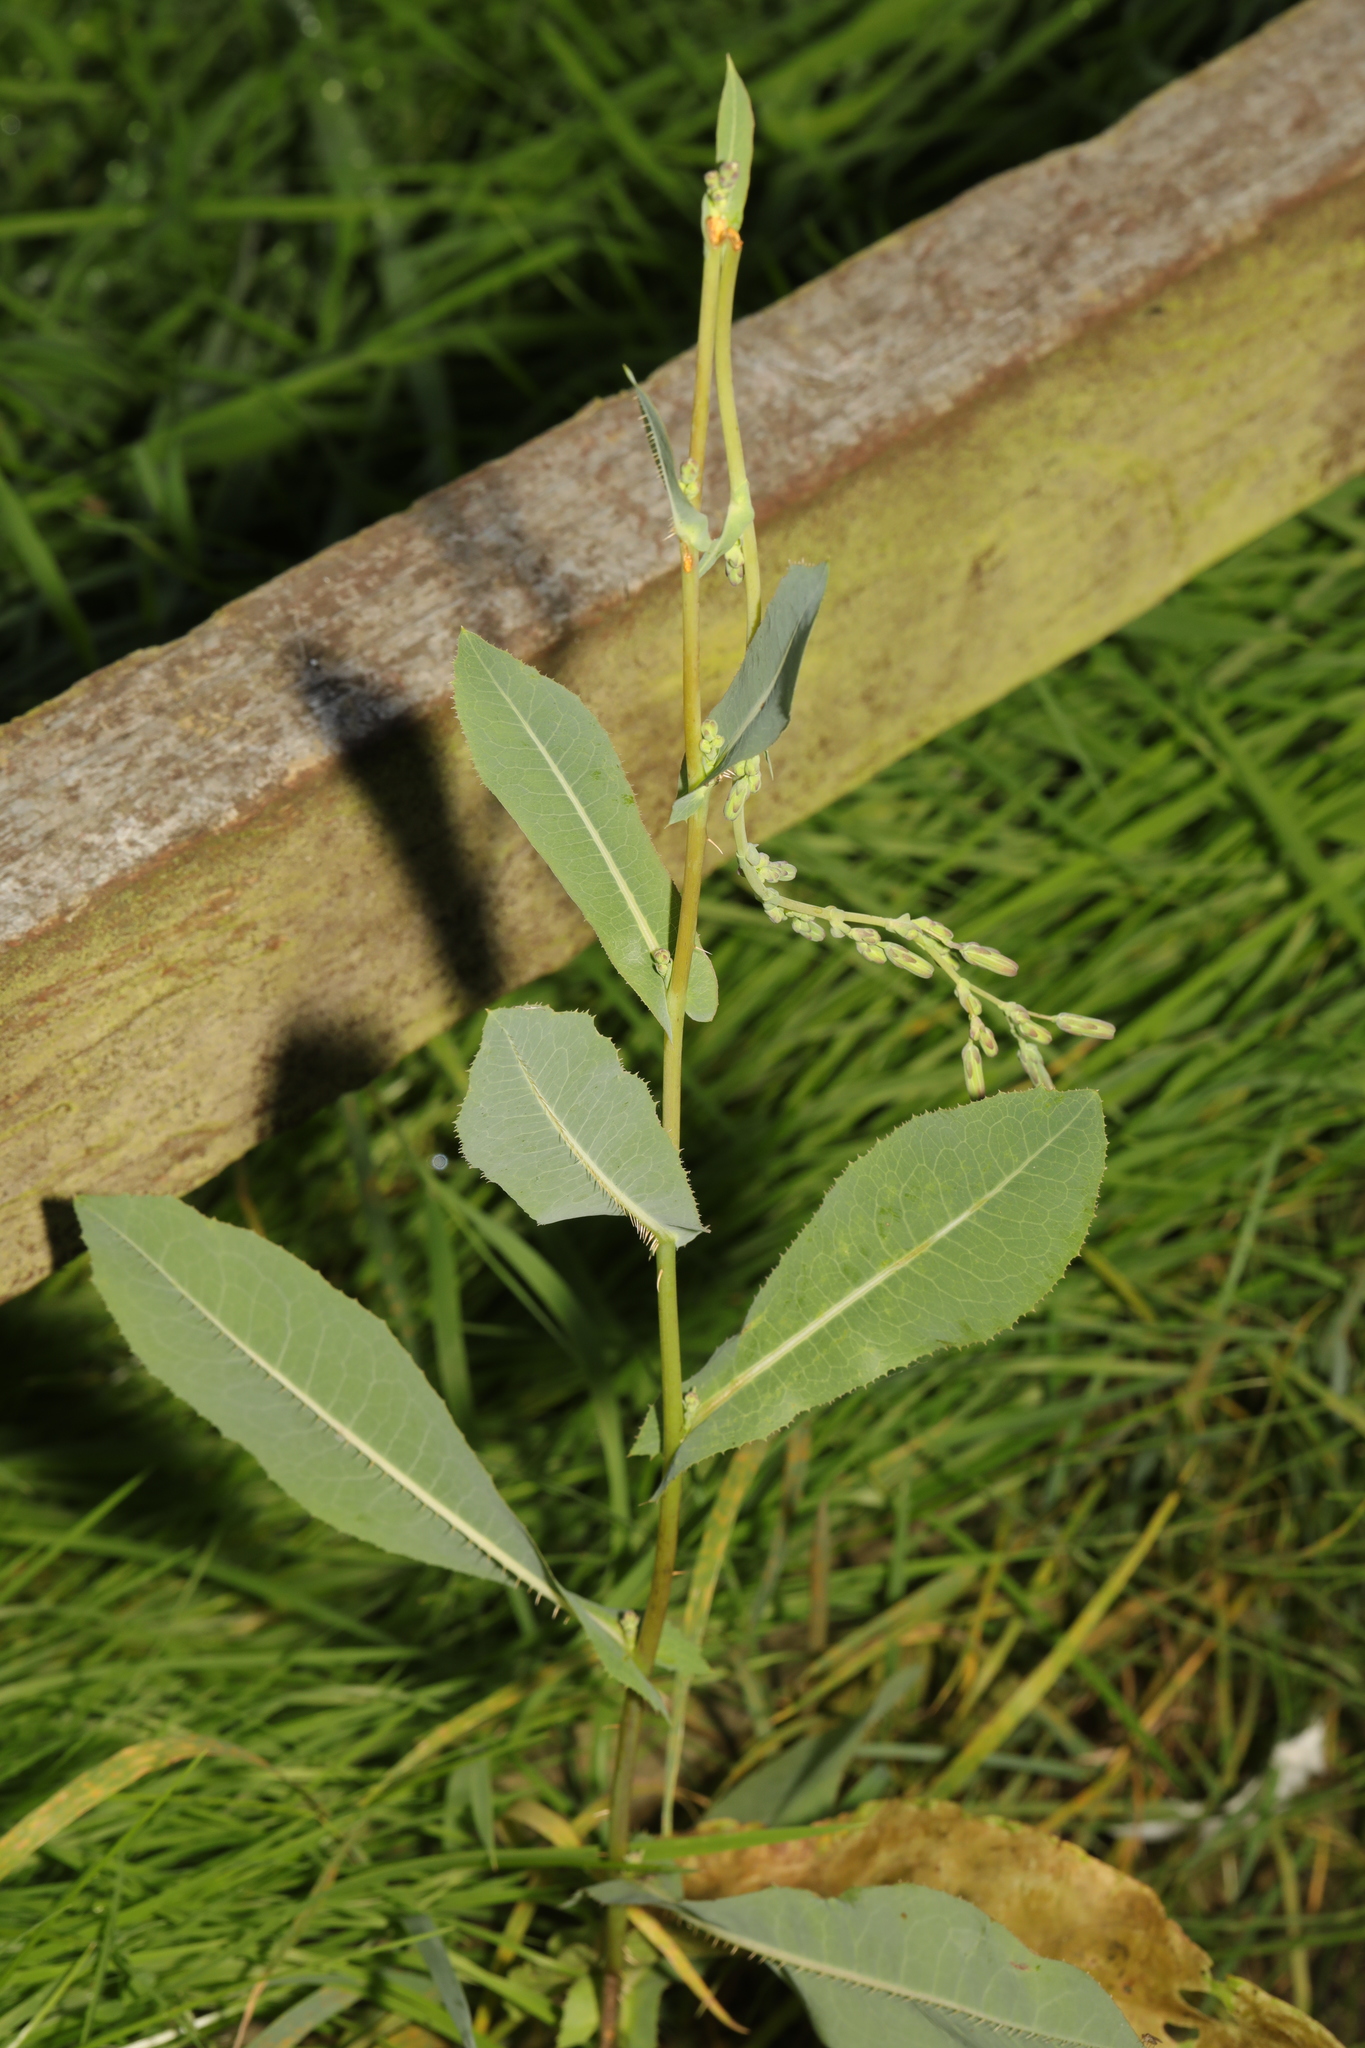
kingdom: Plantae
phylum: Tracheophyta
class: Magnoliopsida
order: Asterales
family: Asteraceae
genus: Lactuca
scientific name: Lactuca serriola
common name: Prickly lettuce
